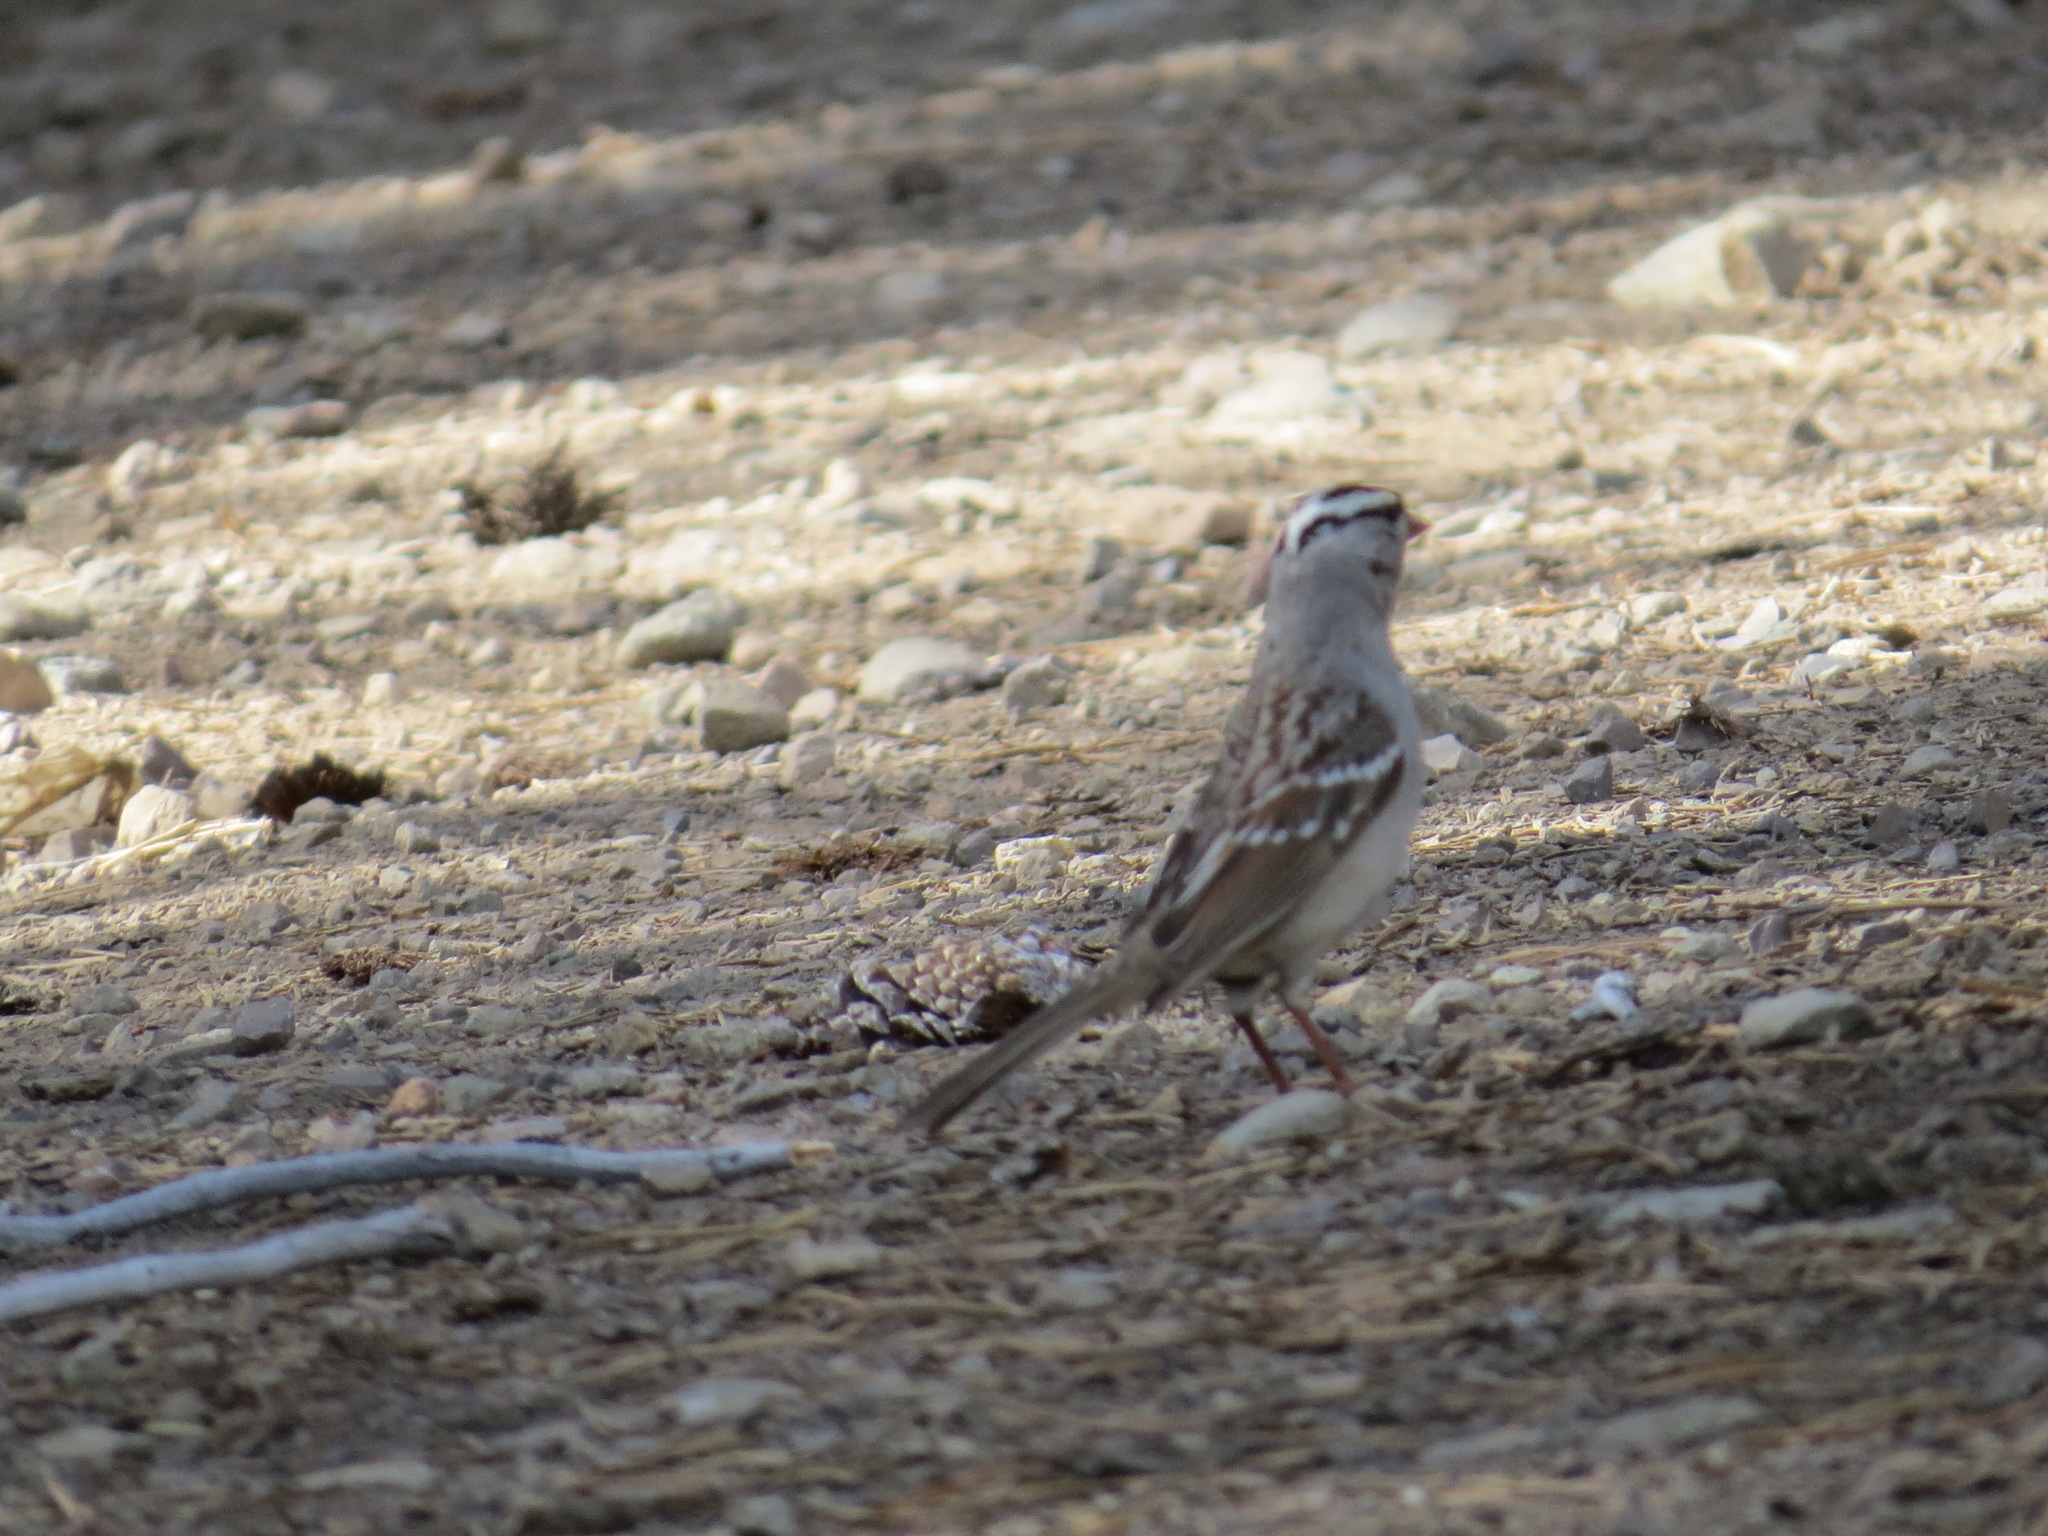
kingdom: Animalia
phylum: Chordata
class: Aves
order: Passeriformes
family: Passerellidae
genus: Zonotrichia
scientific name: Zonotrichia leucophrys
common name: White-crowned sparrow
